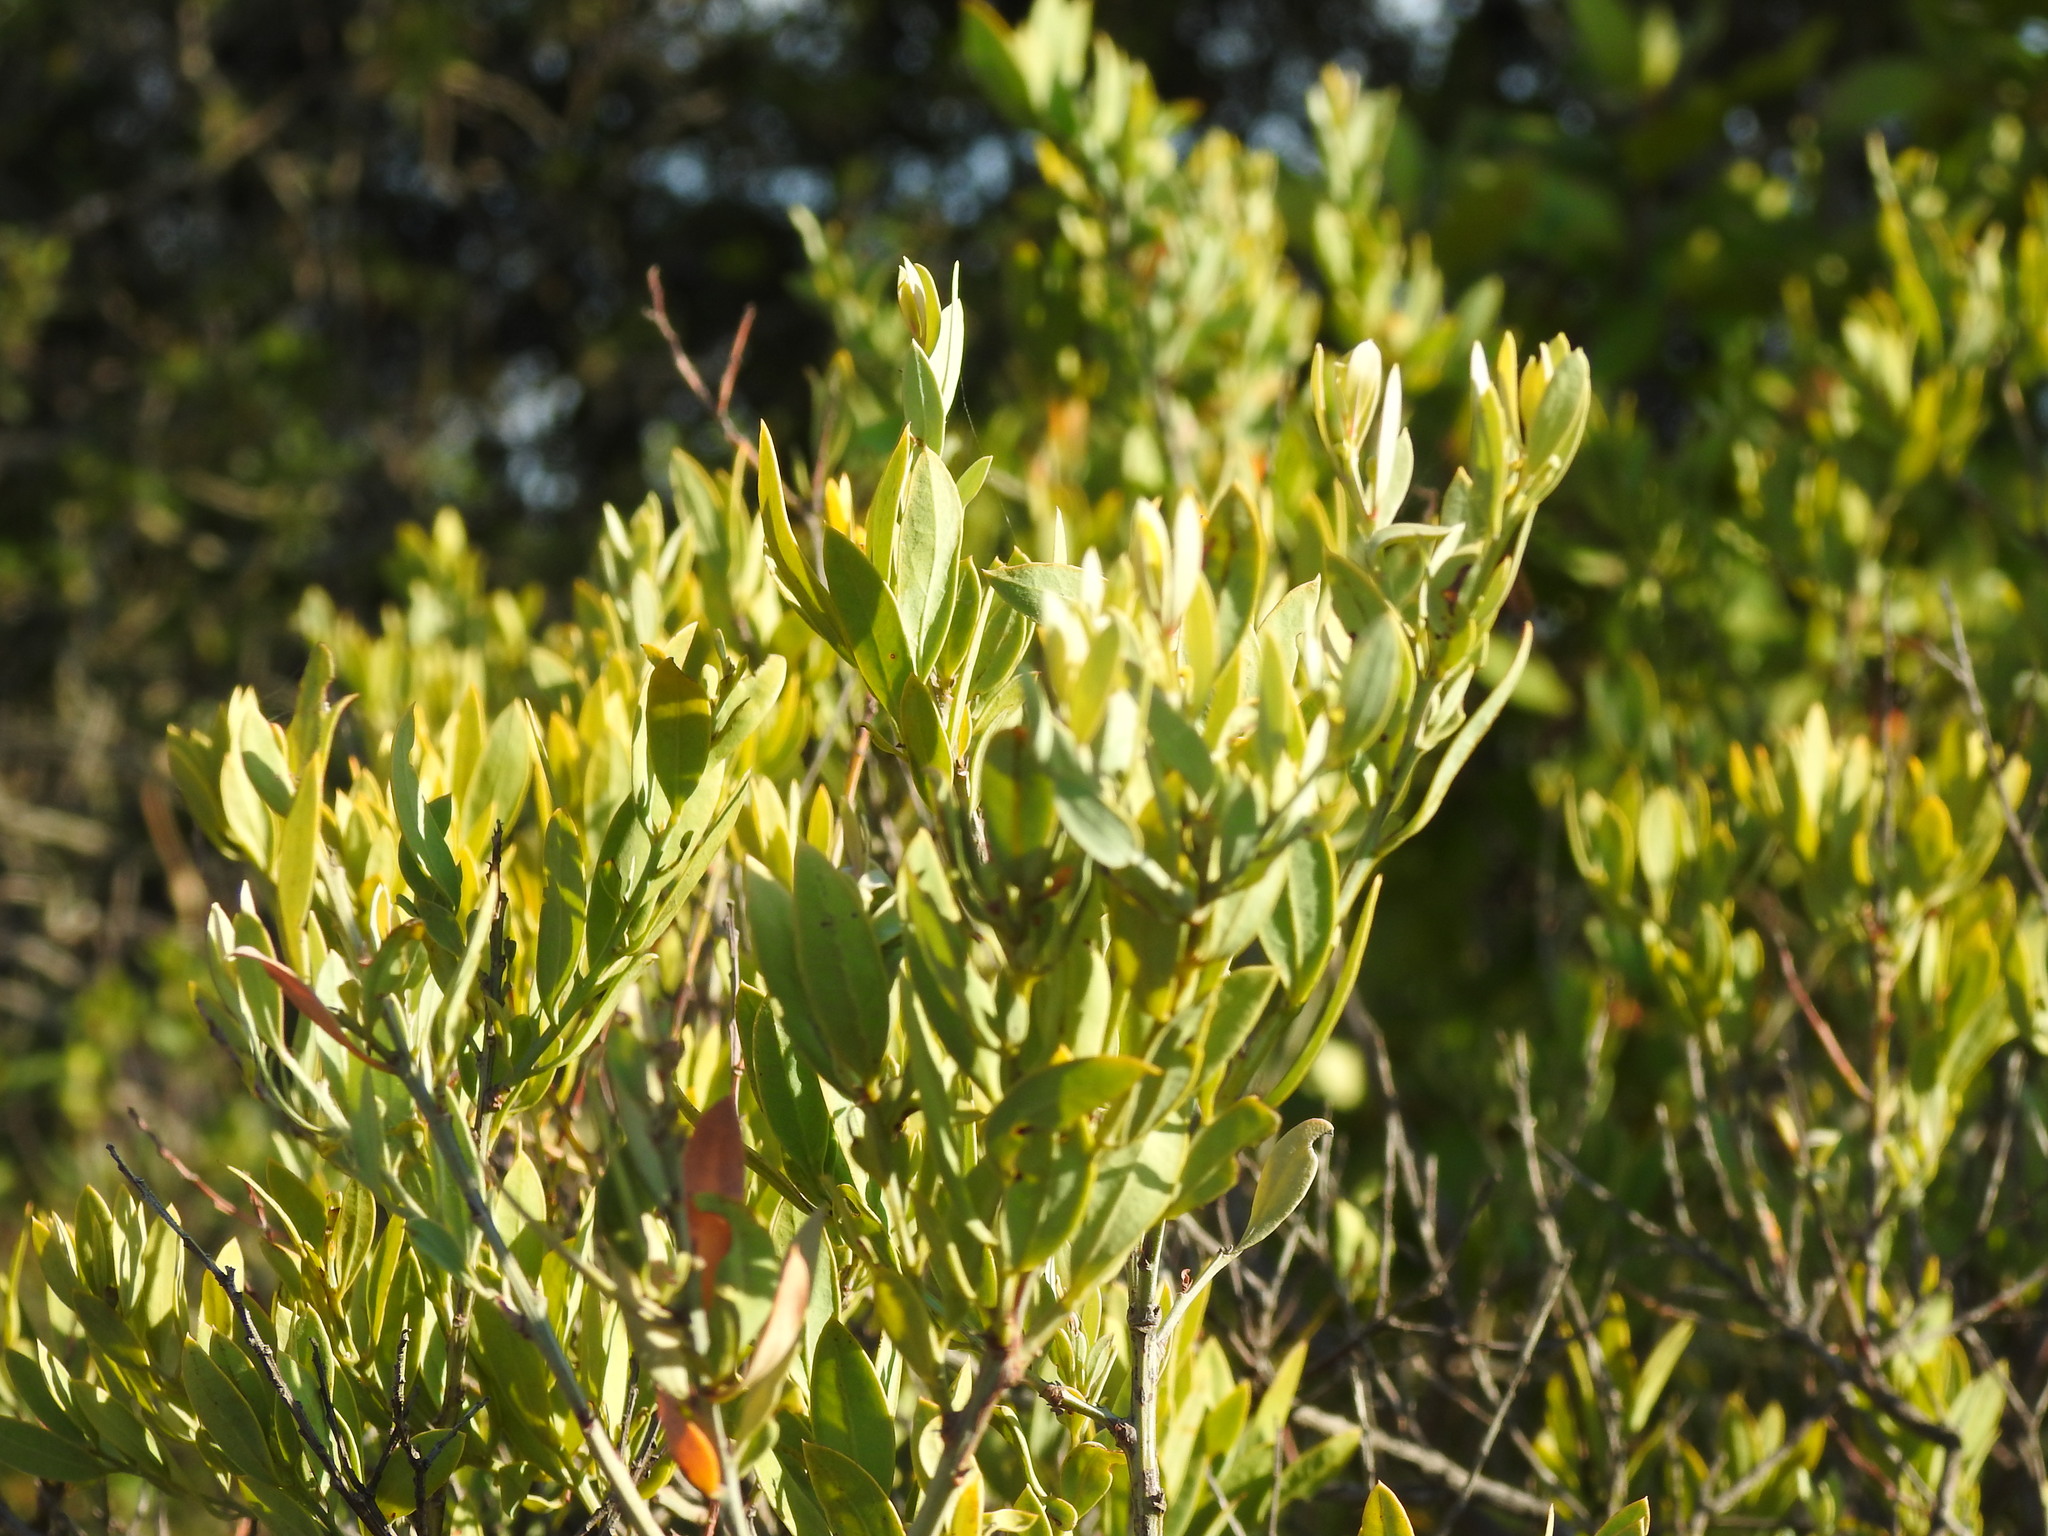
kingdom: Plantae
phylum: Tracheophyta
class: Magnoliopsida
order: Santalales
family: Santalaceae
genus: Osyris
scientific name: Osyris lanceolata
